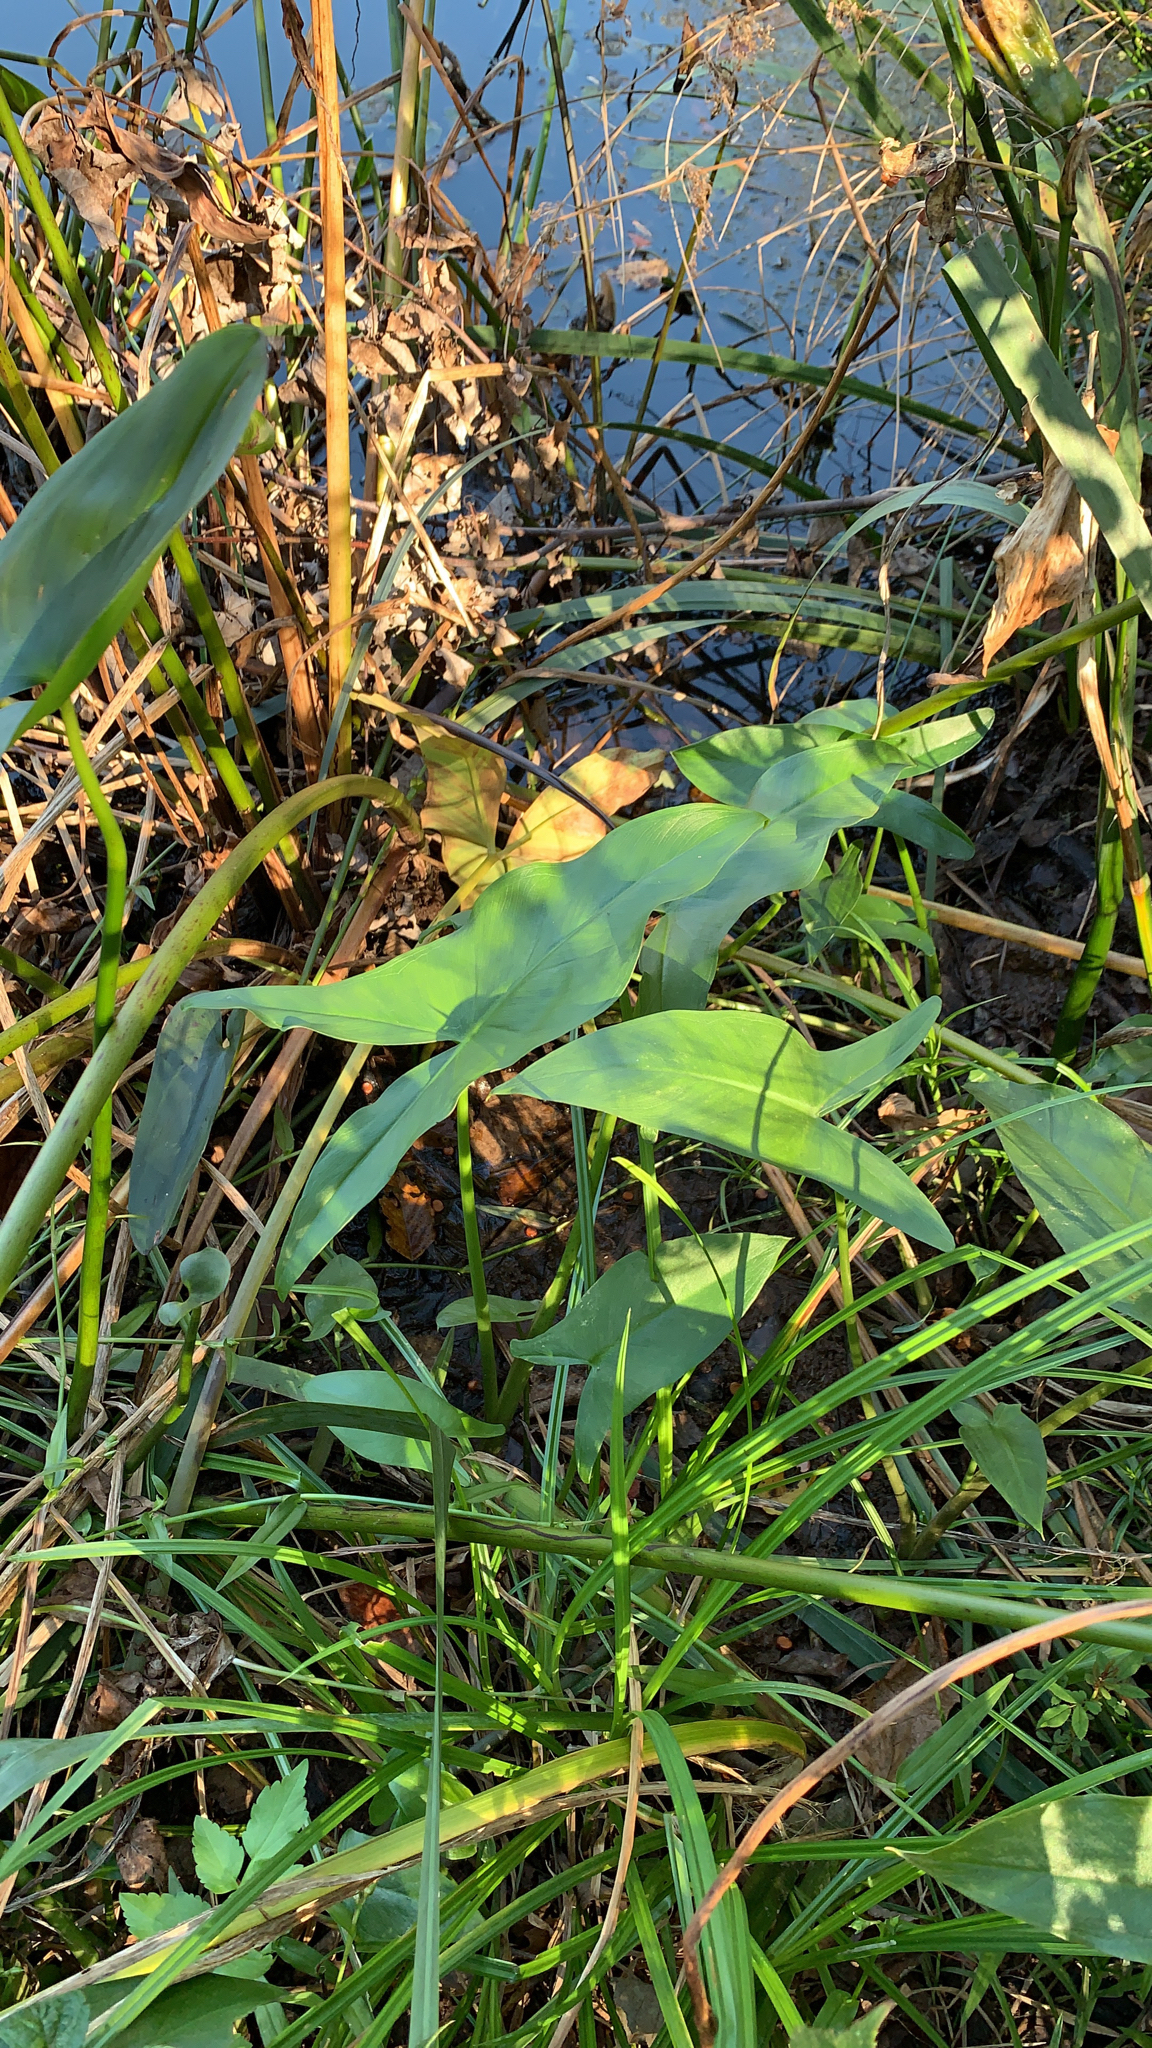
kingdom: Plantae
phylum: Tracheophyta
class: Liliopsida
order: Alismatales
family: Araceae
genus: Peltandra
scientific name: Peltandra virginica
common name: Arrow arum
